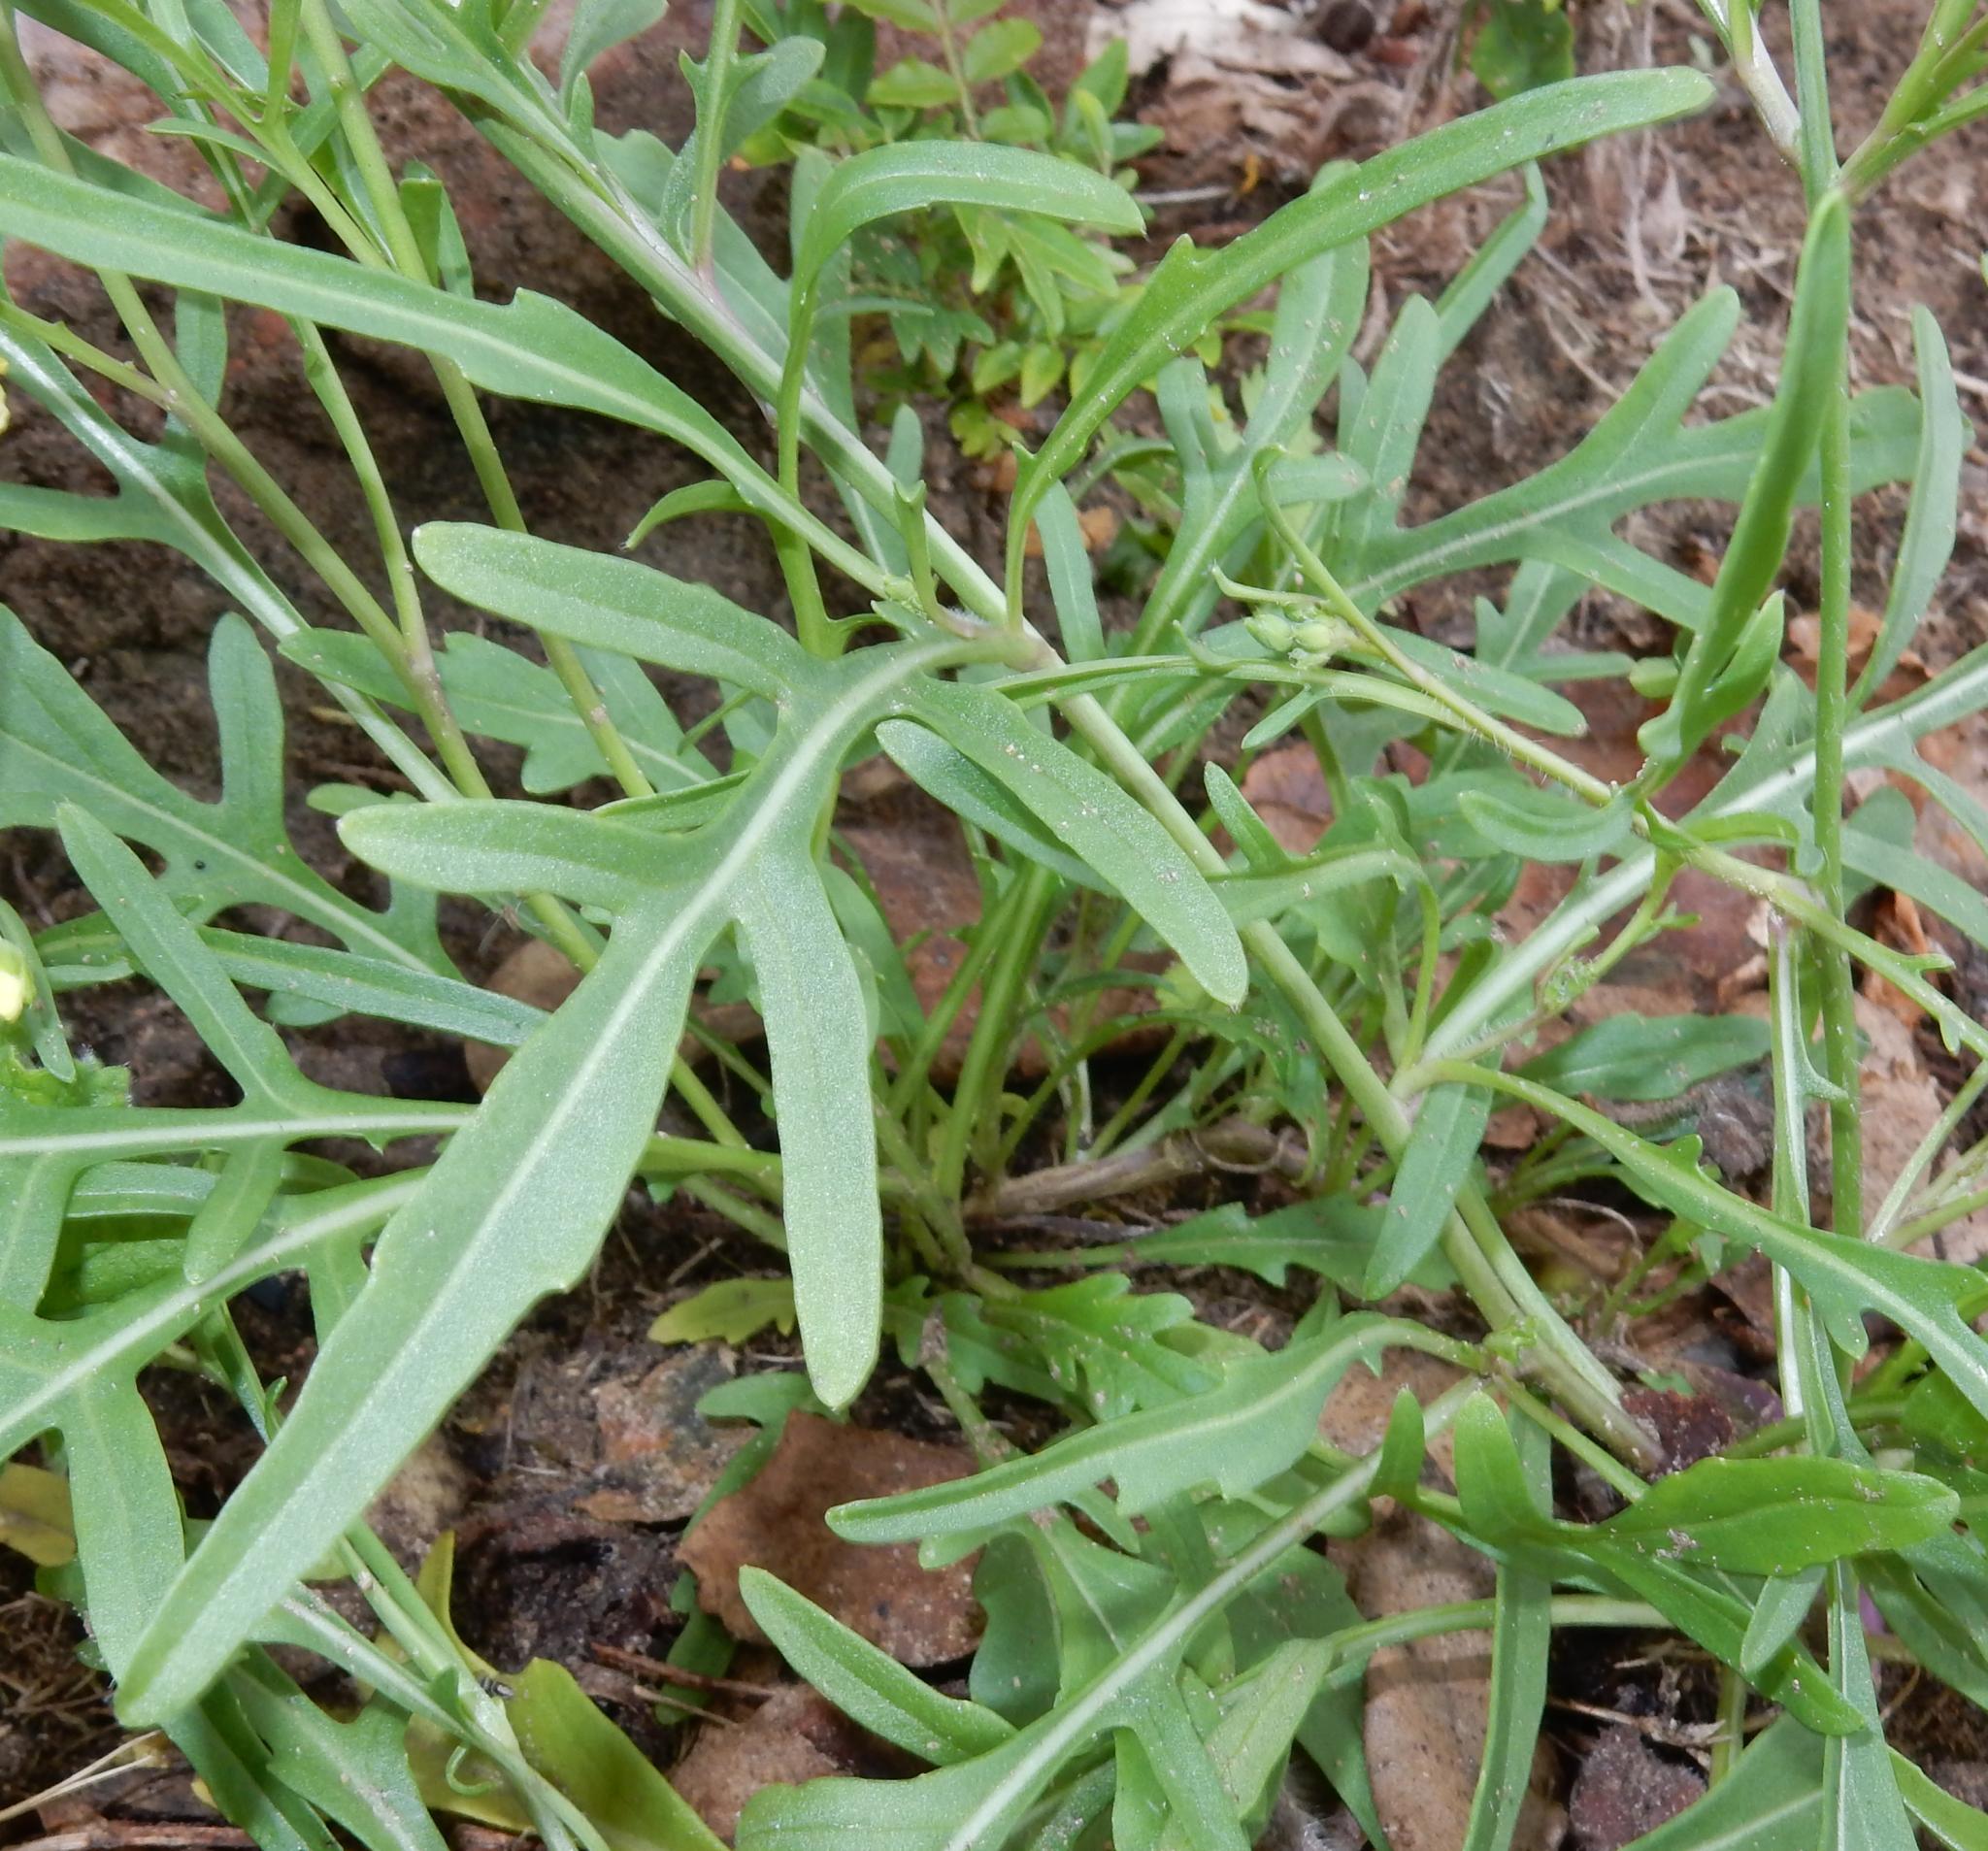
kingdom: Plantae
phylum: Tracheophyta
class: Magnoliopsida
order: Brassicales
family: Brassicaceae
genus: Diplotaxis
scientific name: Diplotaxis tenuifolia
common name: Perennial wall-rocket
